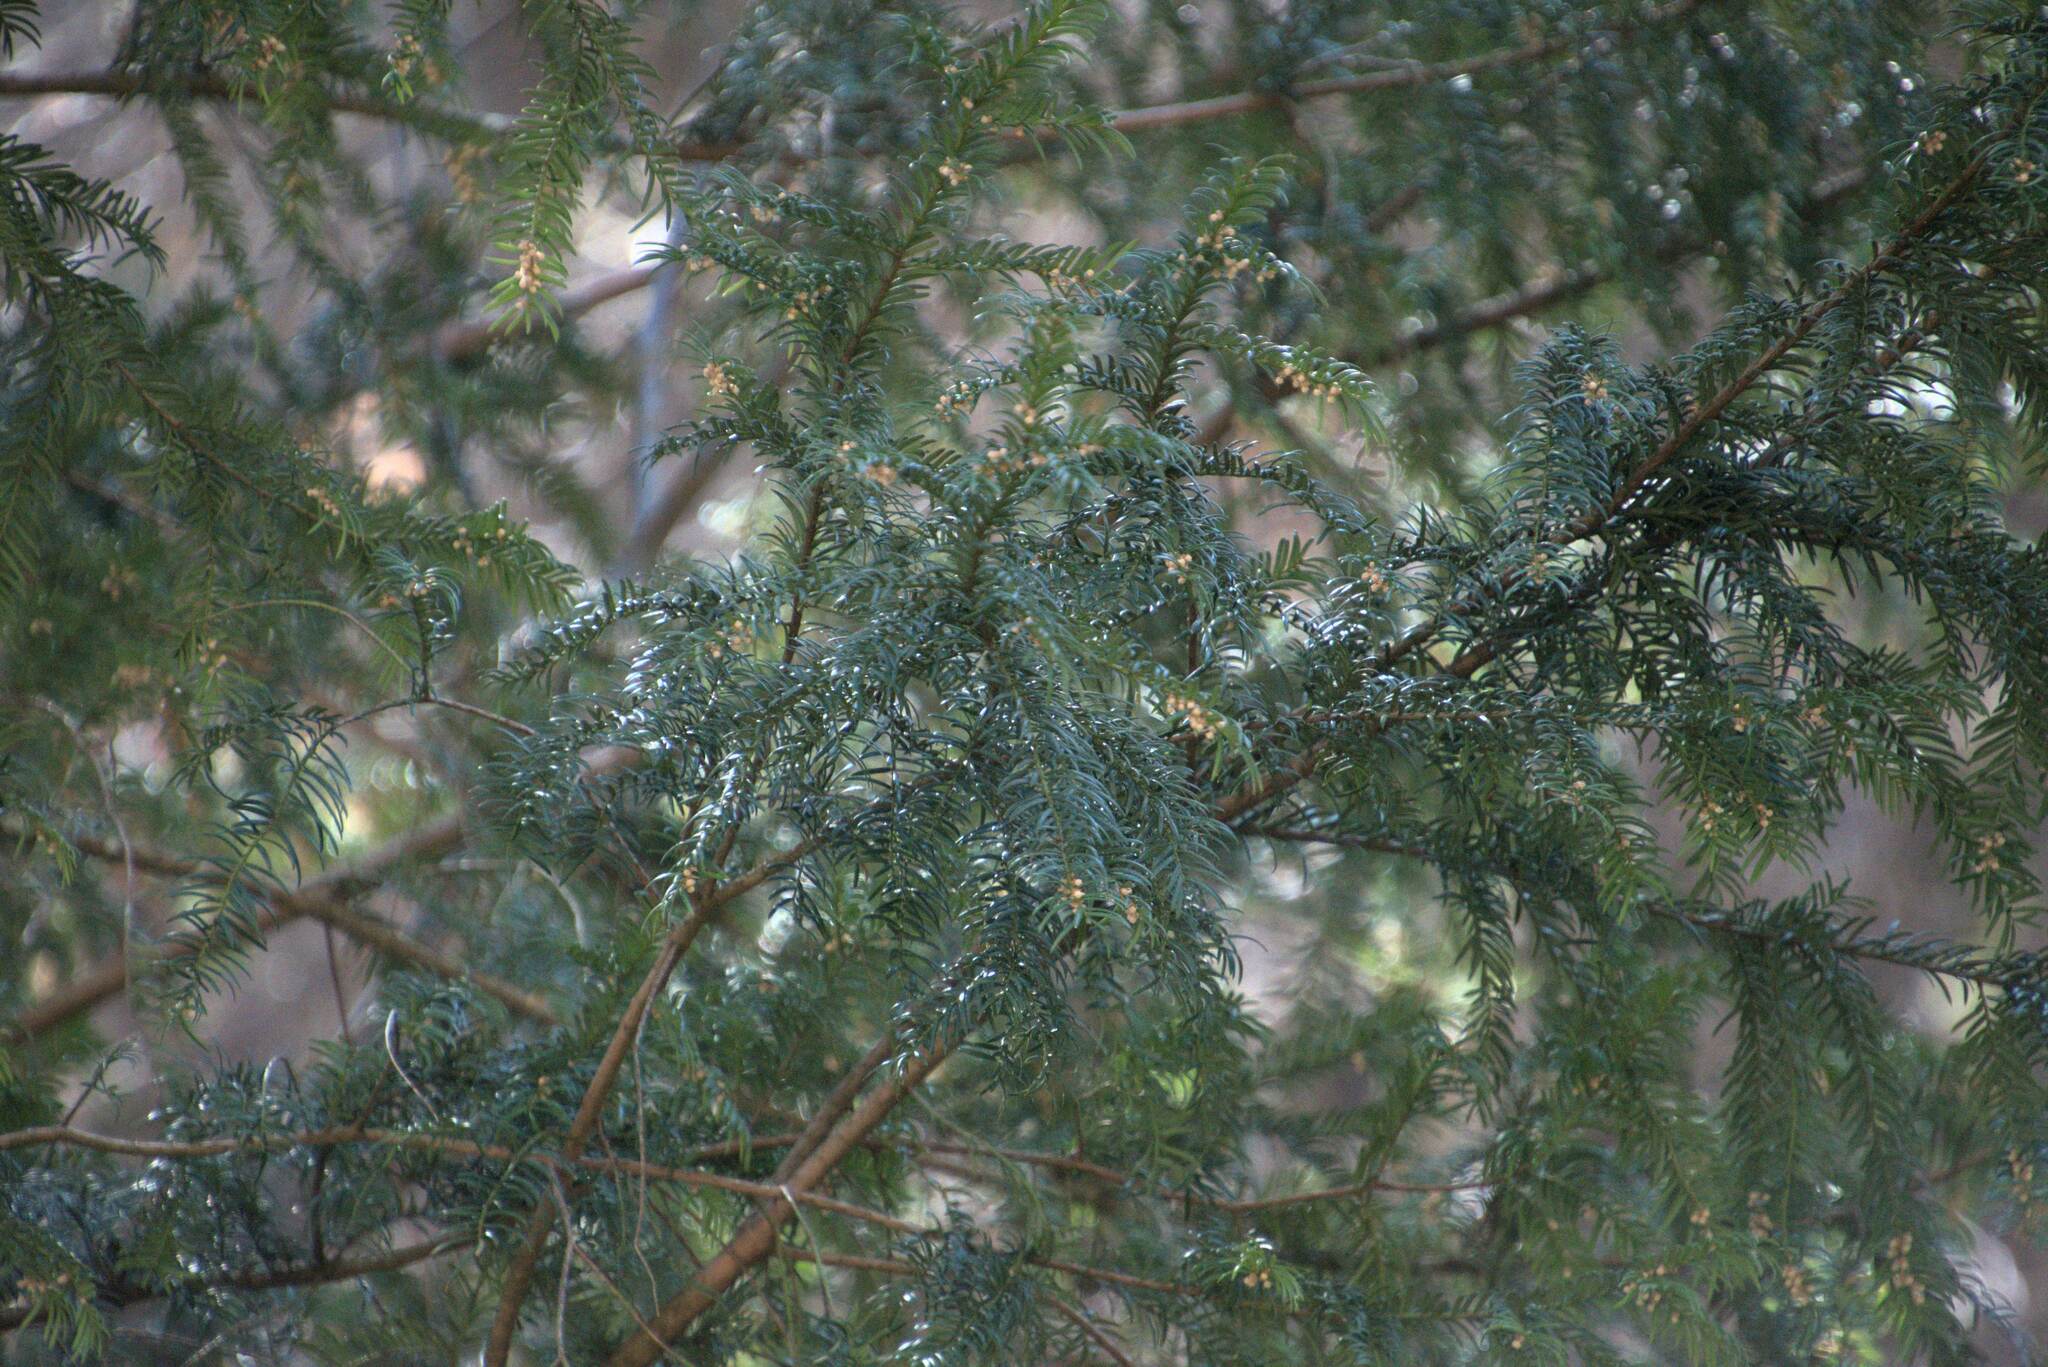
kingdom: Plantae
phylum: Tracheophyta
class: Pinopsida
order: Pinales
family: Taxaceae
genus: Taxus
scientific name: Taxus baccata
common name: Yew
